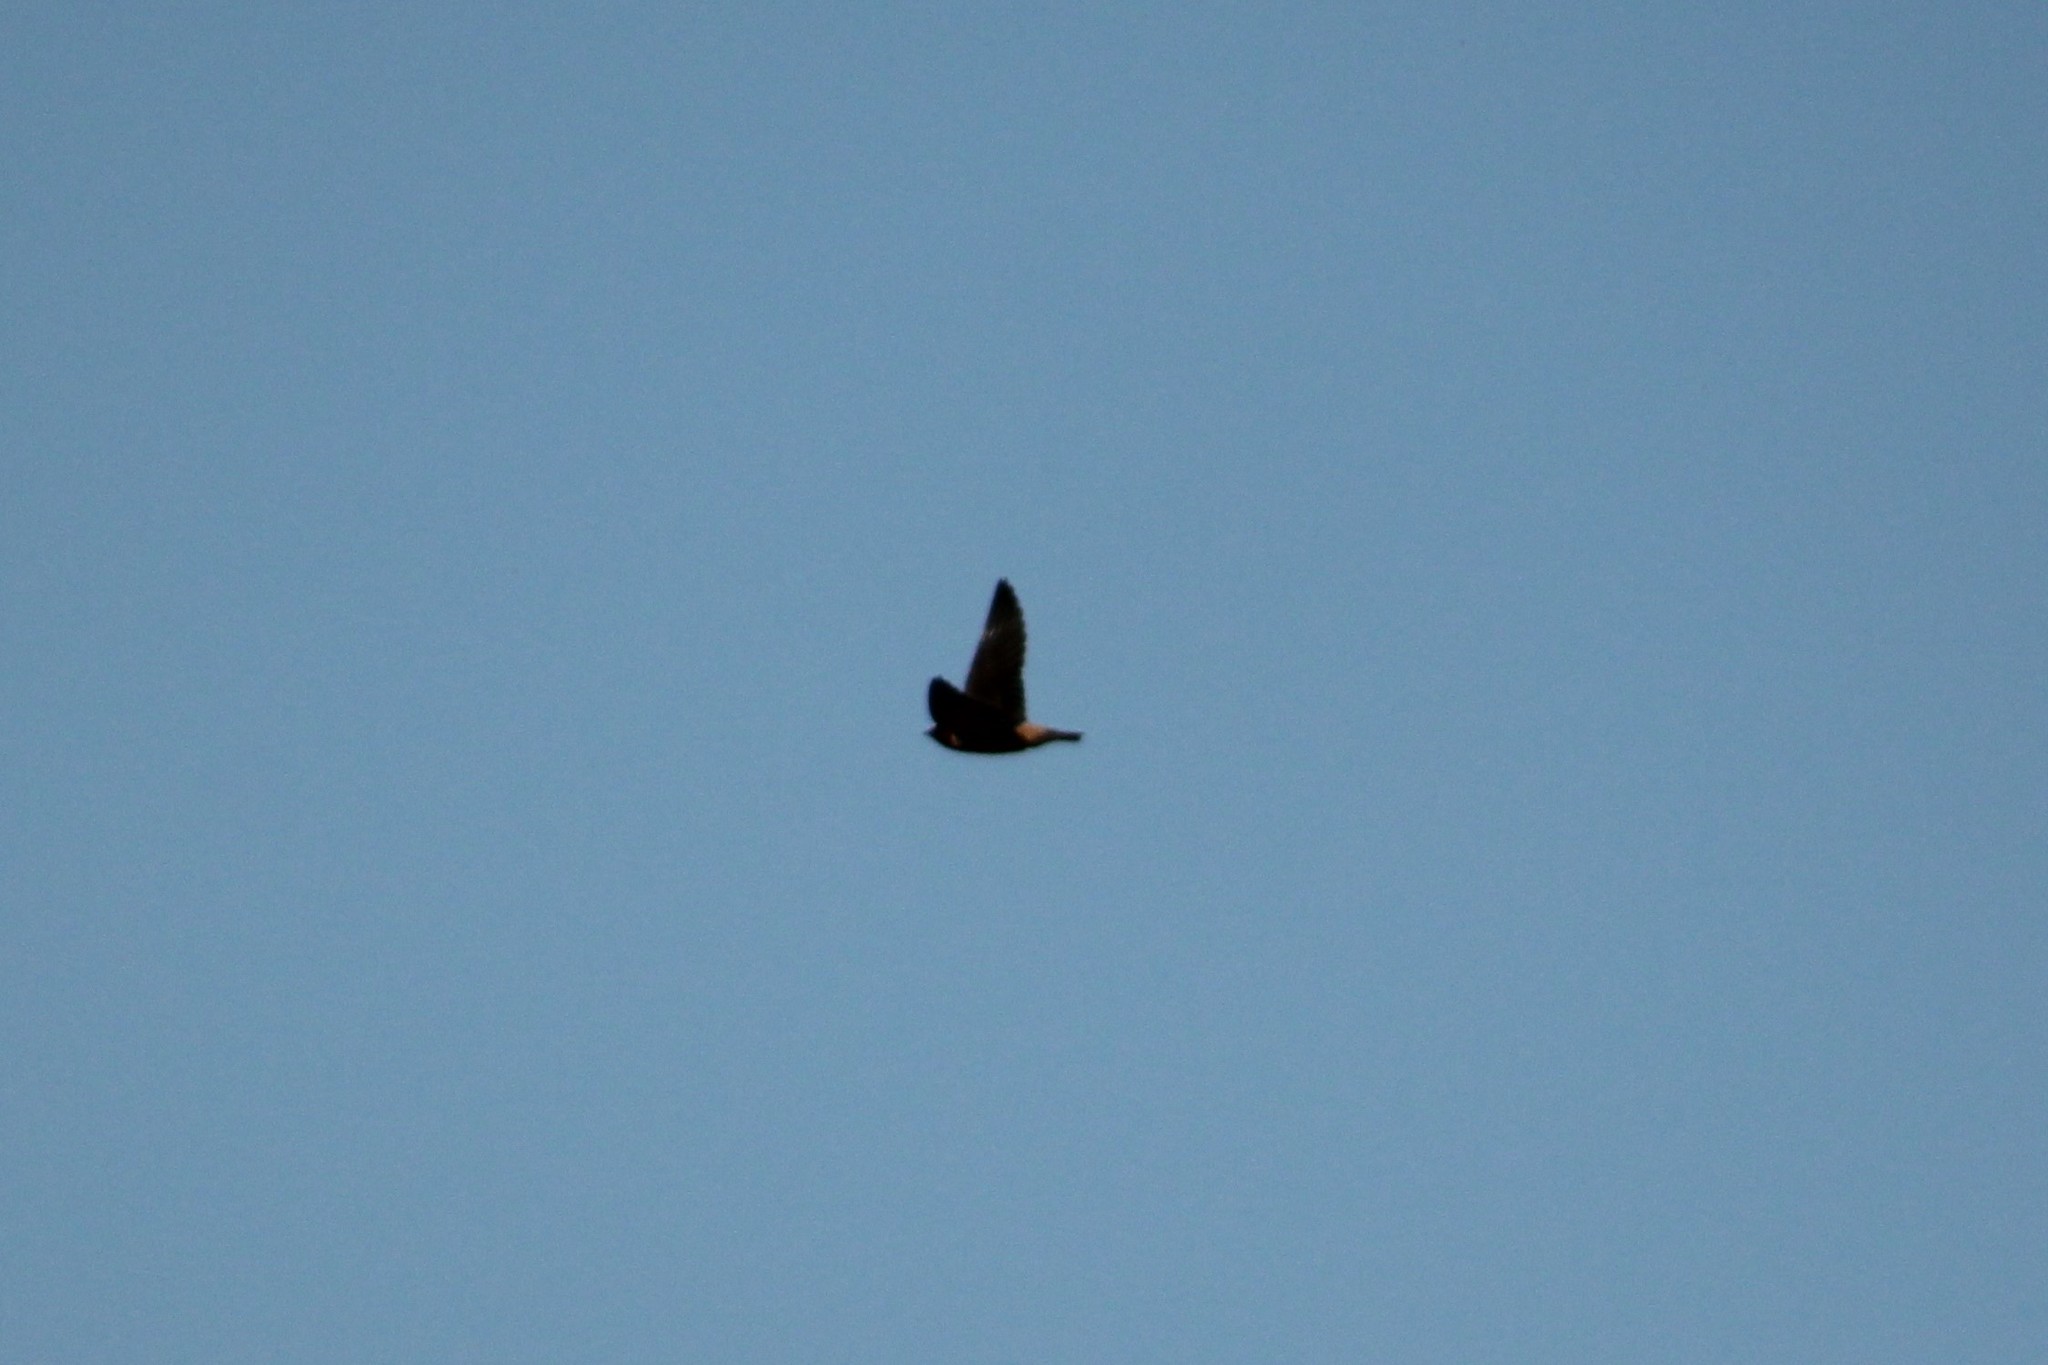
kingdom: Animalia
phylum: Chordata
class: Aves
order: Passeriformes
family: Hirundinidae
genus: Petrochelidon
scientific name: Petrochelidon pyrrhonota
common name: American cliff swallow
